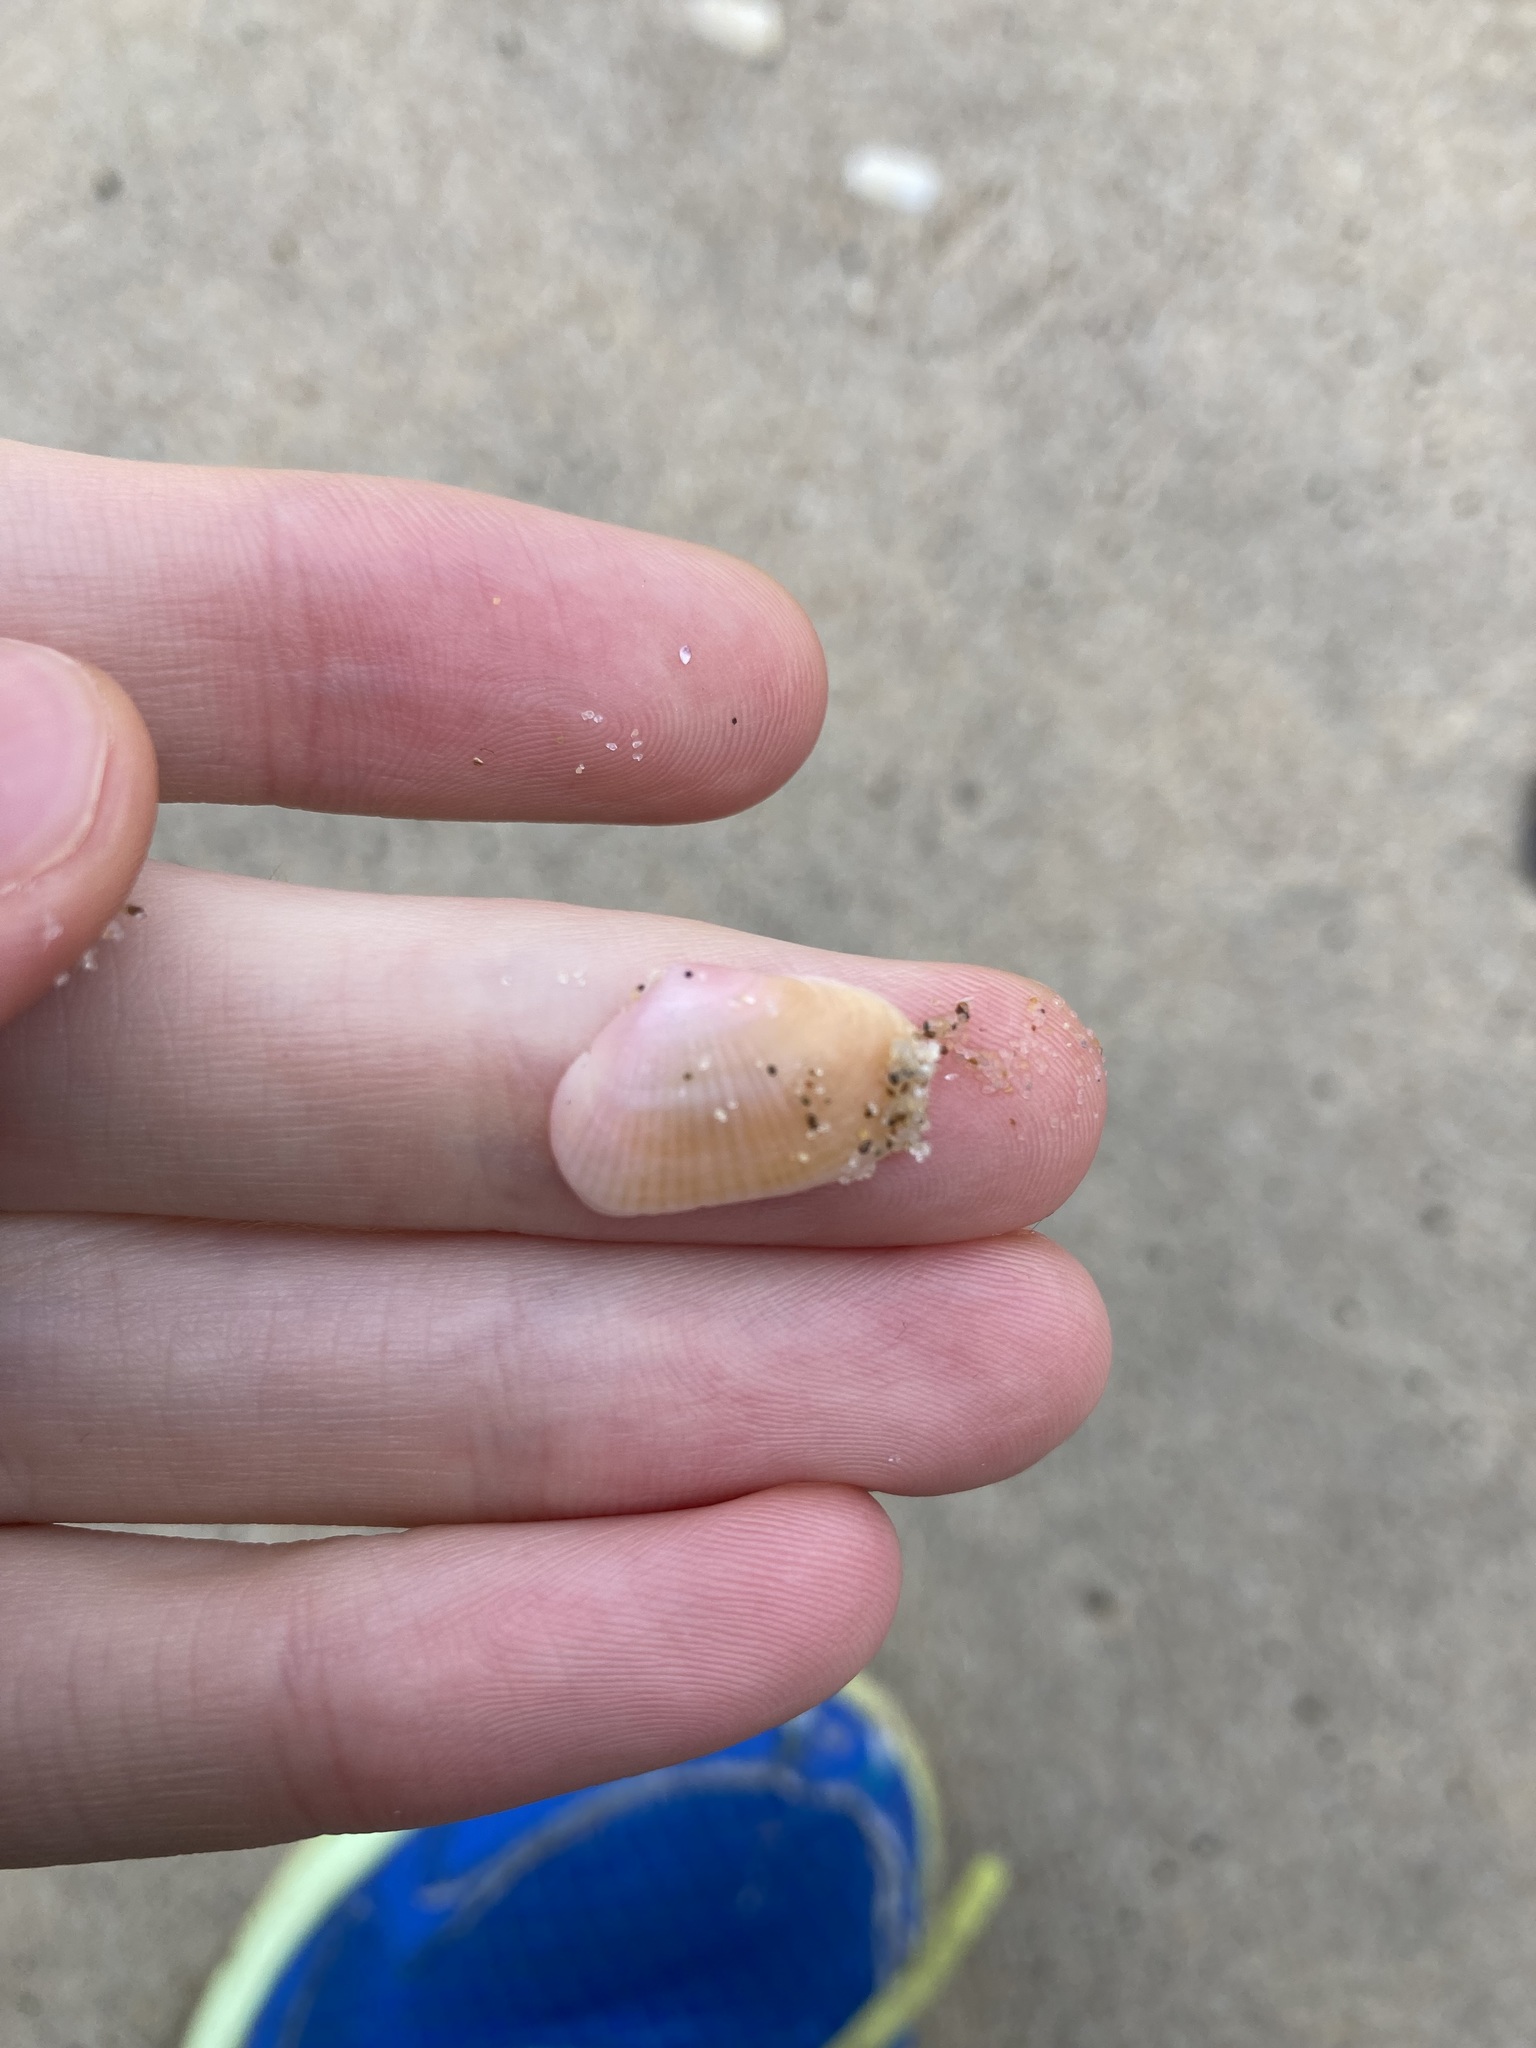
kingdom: Animalia
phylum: Mollusca
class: Bivalvia
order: Venerida
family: Hemidonacidae
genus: Hemidonax
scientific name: Hemidonax dactylus
